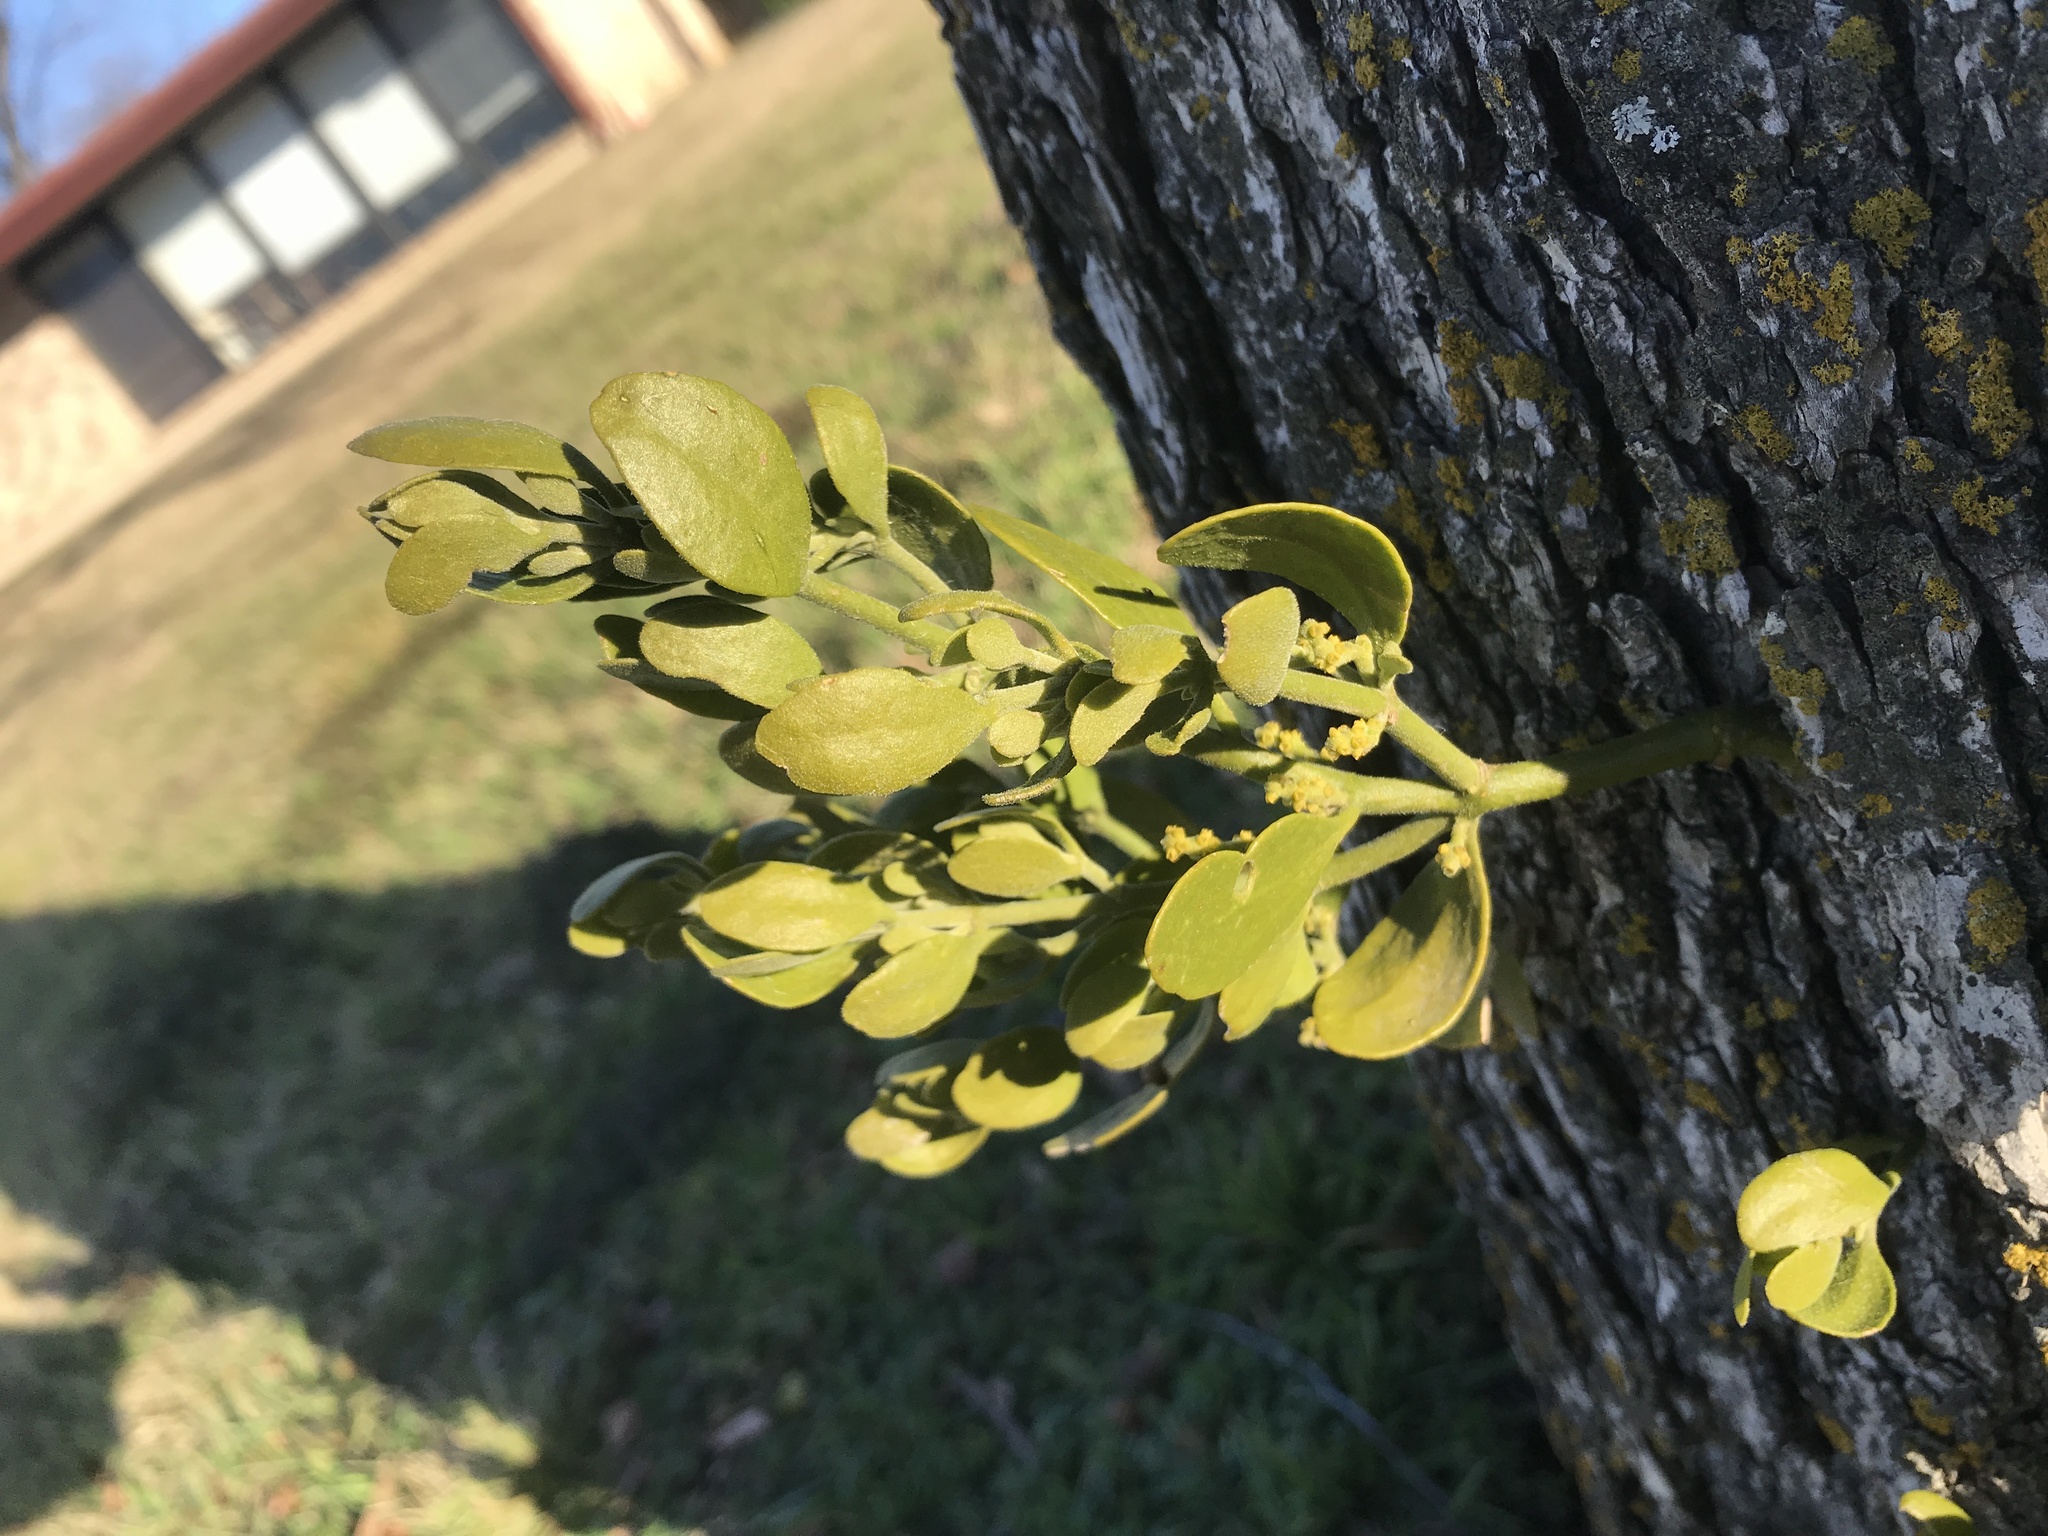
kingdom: Plantae
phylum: Tracheophyta
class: Magnoliopsida
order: Santalales
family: Viscaceae
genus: Phoradendron
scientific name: Phoradendron leucarpum
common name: Pacific mistletoe
